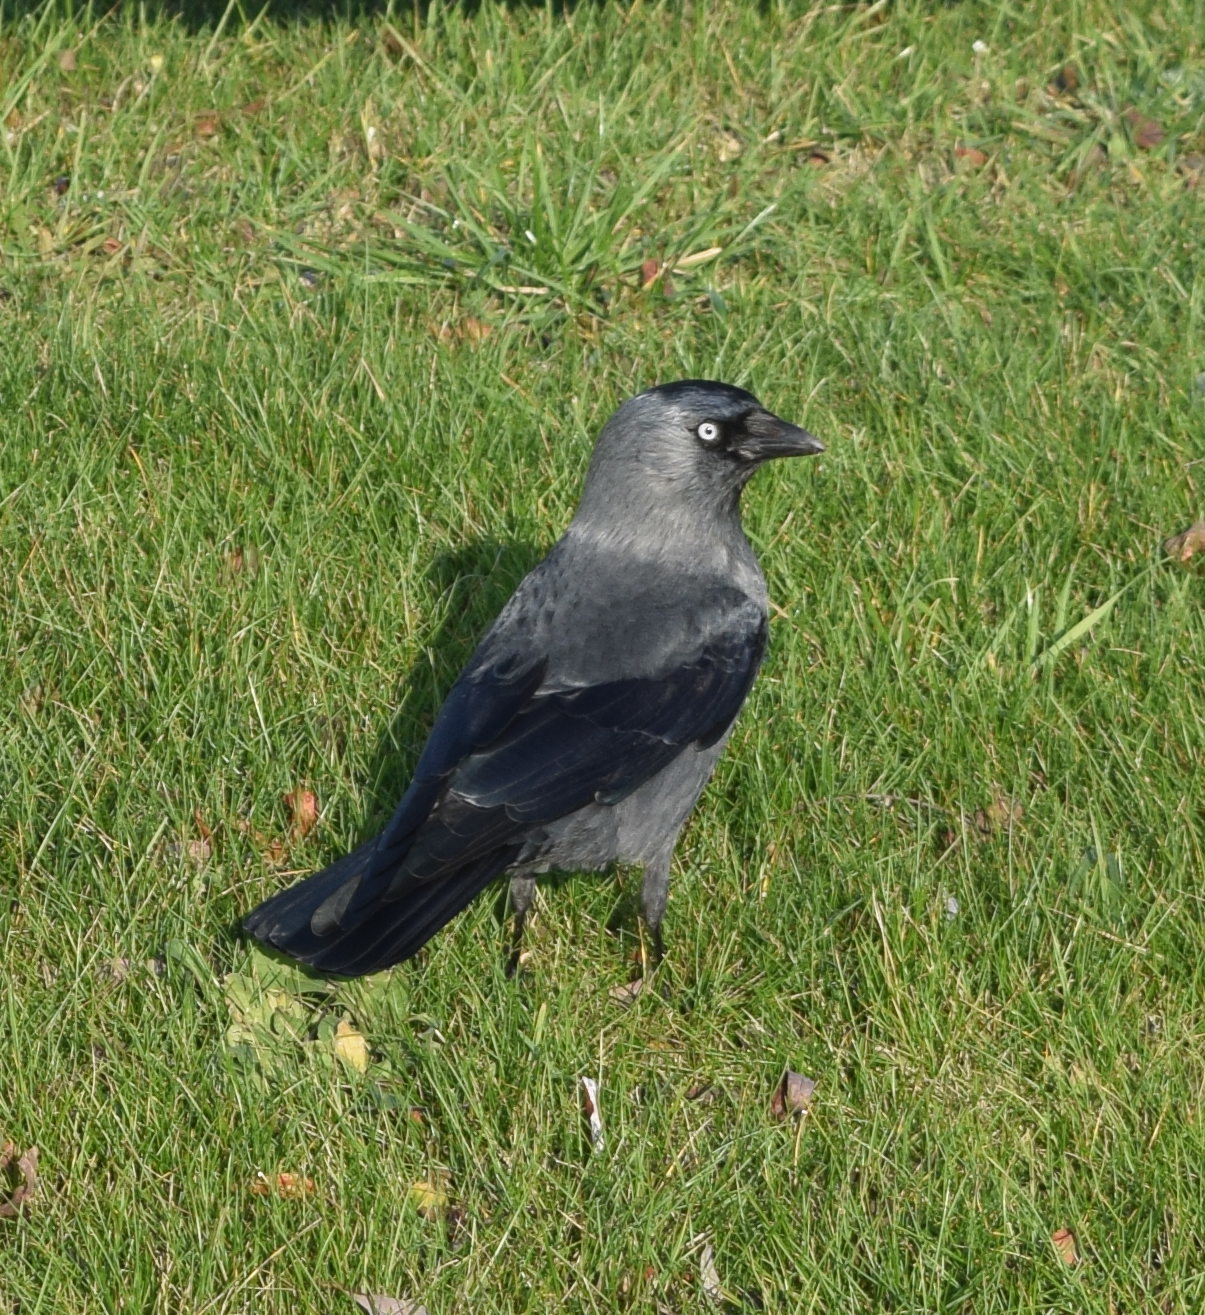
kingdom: Animalia
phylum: Chordata
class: Aves
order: Passeriformes
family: Corvidae
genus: Coloeus
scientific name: Coloeus monedula
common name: Western jackdaw
